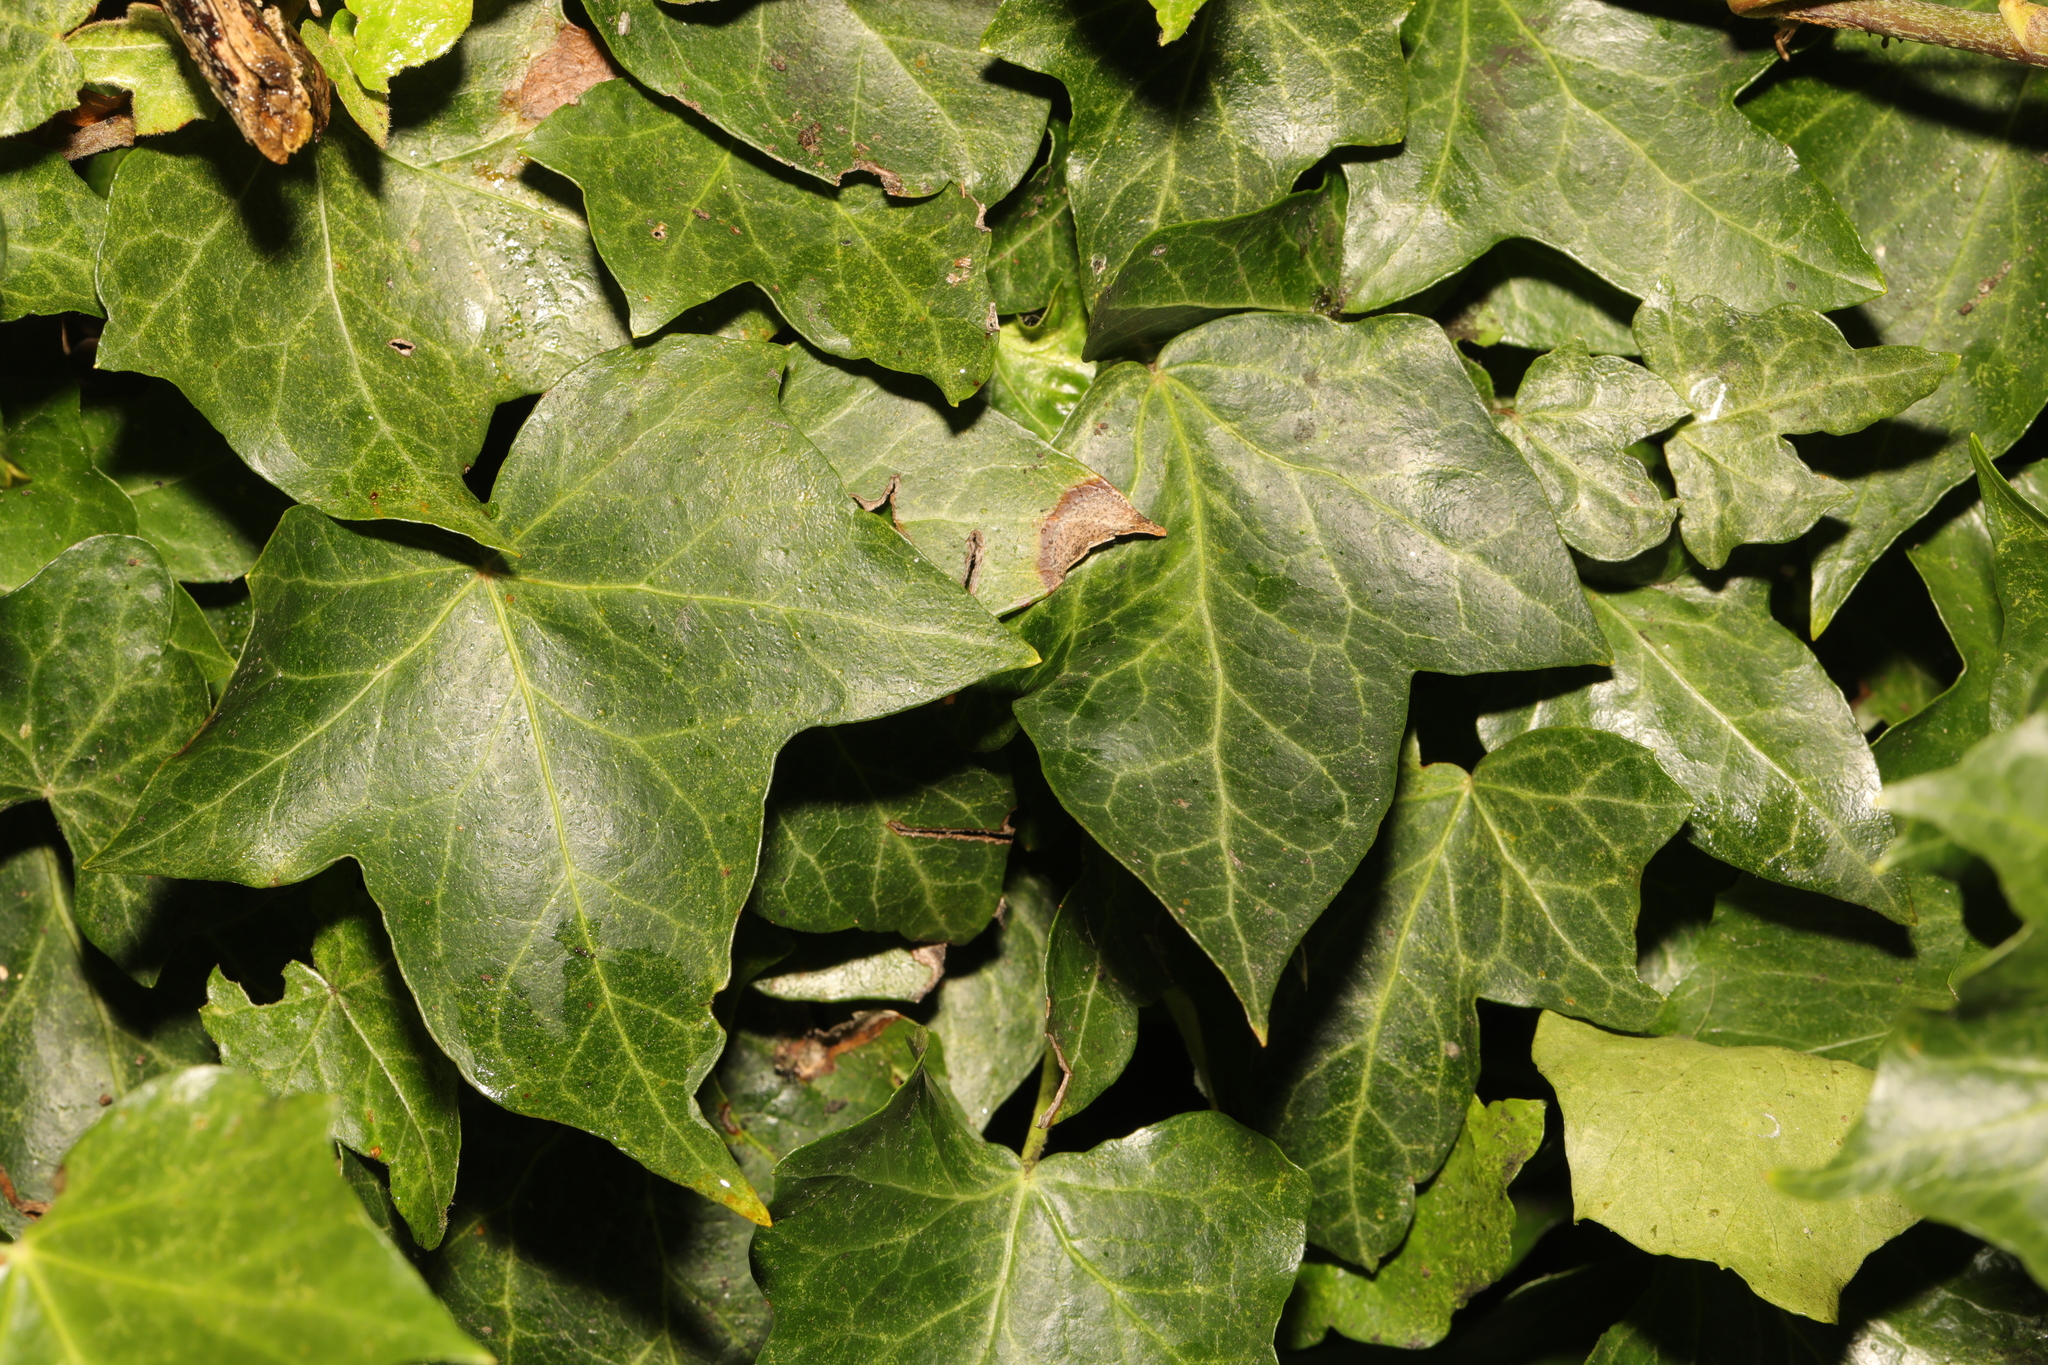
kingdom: Plantae
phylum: Tracheophyta
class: Magnoliopsida
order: Apiales
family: Araliaceae
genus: Hedera
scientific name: Hedera helix
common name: Ivy
